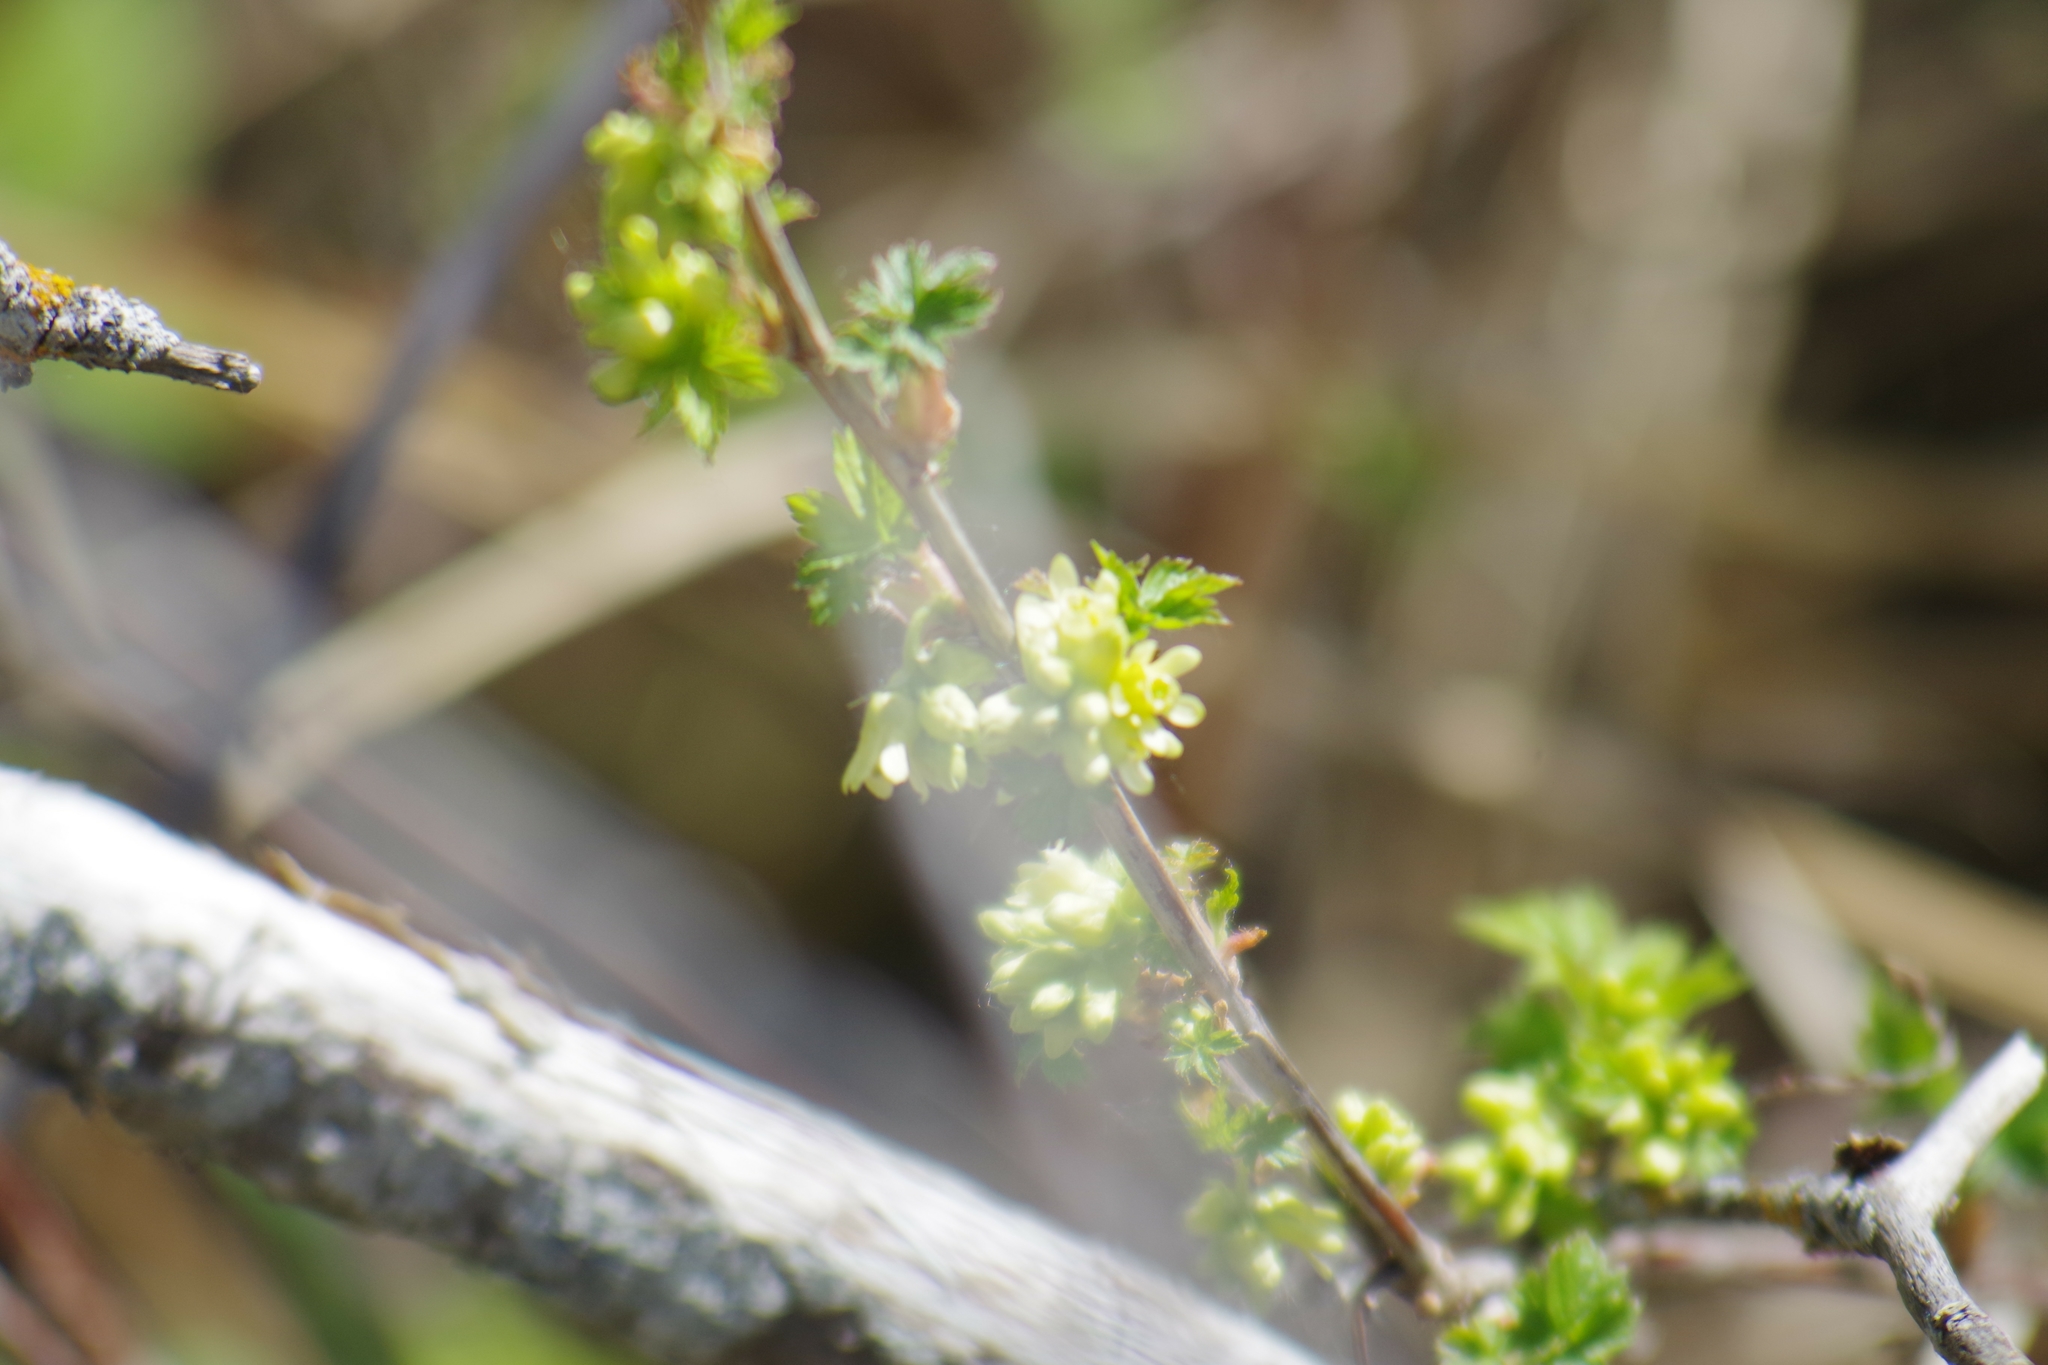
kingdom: Plantae
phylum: Tracheophyta
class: Magnoliopsida
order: Saxifragales
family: Grossulariaceae
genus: Ribes
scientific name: Ribes americanum
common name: American black currant
